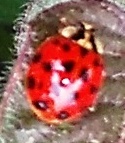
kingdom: Animalia
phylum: Arthropoda
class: Insecta
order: Coleoptera
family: Coccinellidae
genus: Harmonia
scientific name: Harmonia axyridis
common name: Harlequin ladybird
